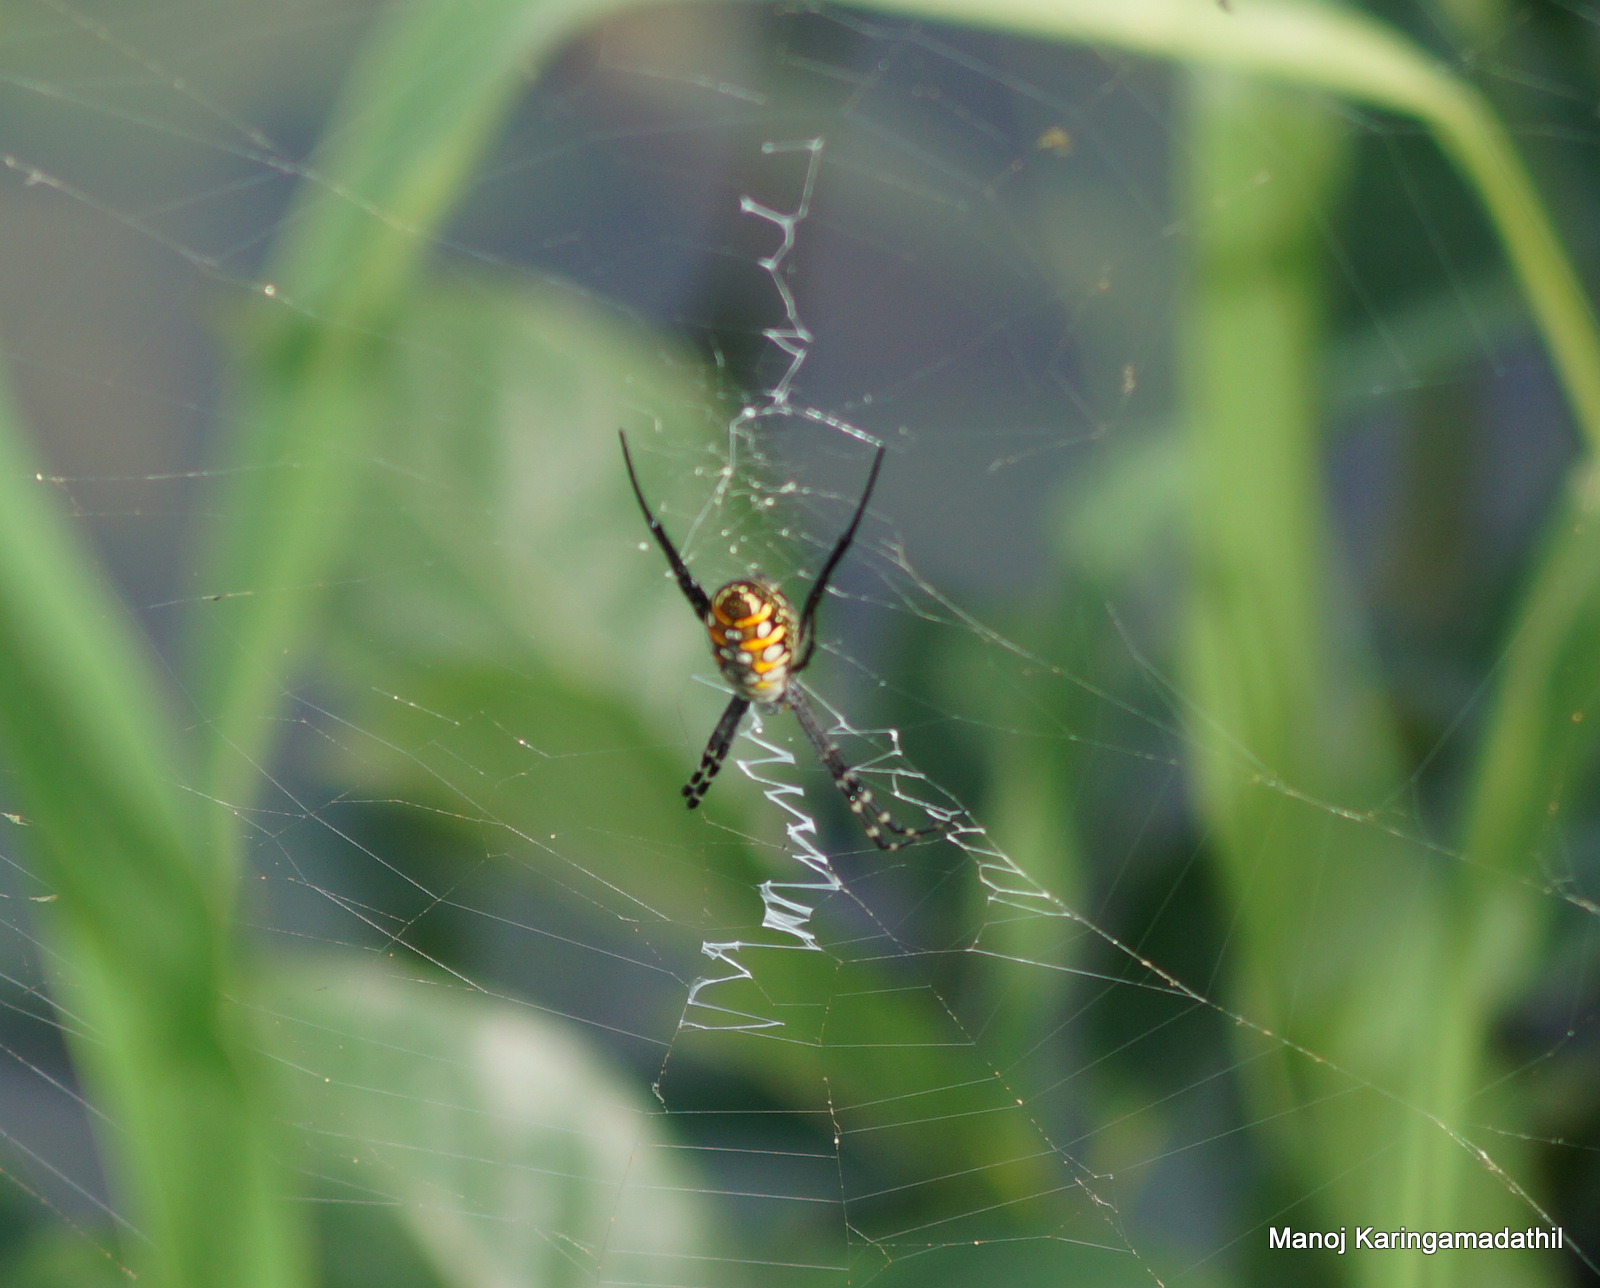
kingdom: Animalia
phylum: Arthropoda
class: Arachnida
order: Araneae
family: Araneidae
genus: Argiope
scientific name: Argiope catenulata
